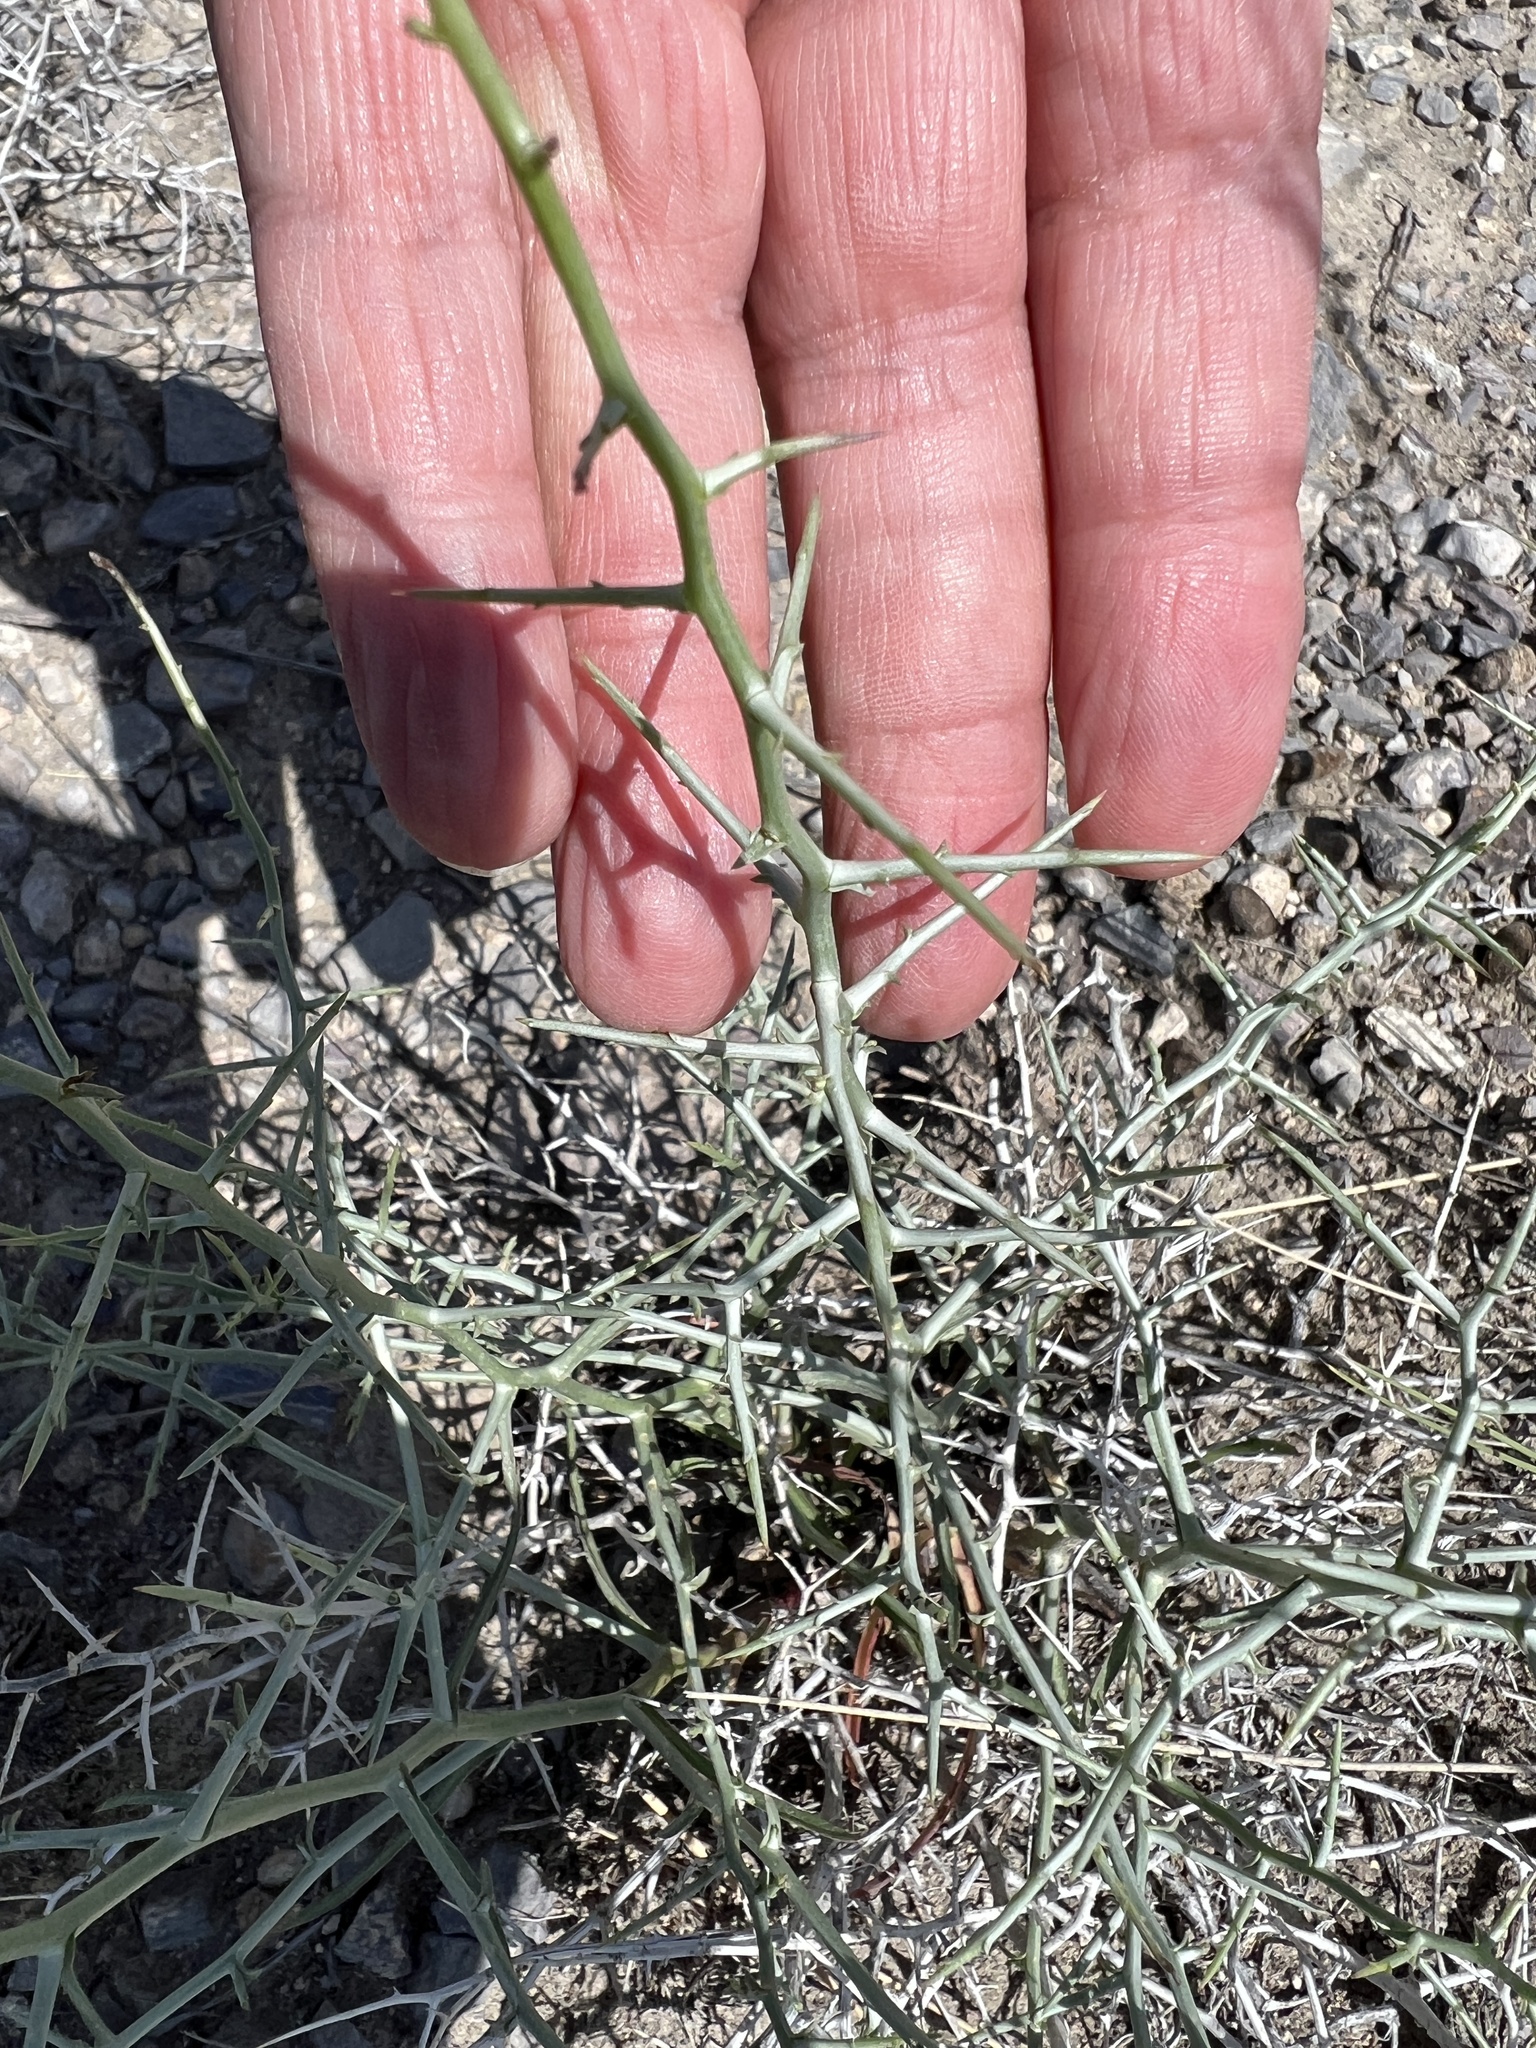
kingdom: Plantae
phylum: Tracheophyta
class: Magnoliopsida
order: Asterales
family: Asteraceae
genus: Pleiacanthus
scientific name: Pleiacanthus spinosus
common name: Thorny skeleton-weed
